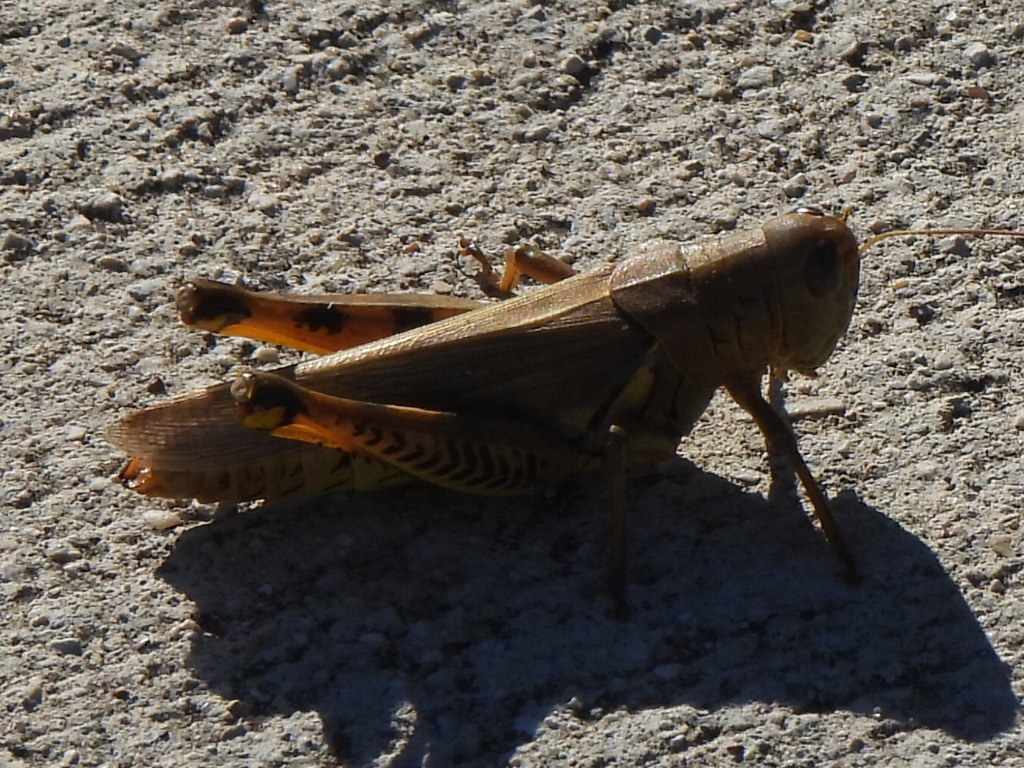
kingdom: Animalia
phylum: Arthropoda
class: Insecta
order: Orthoptera
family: Acrididae
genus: Melanoplus
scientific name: Melanoplus differentialis
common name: Differential grasshopper
